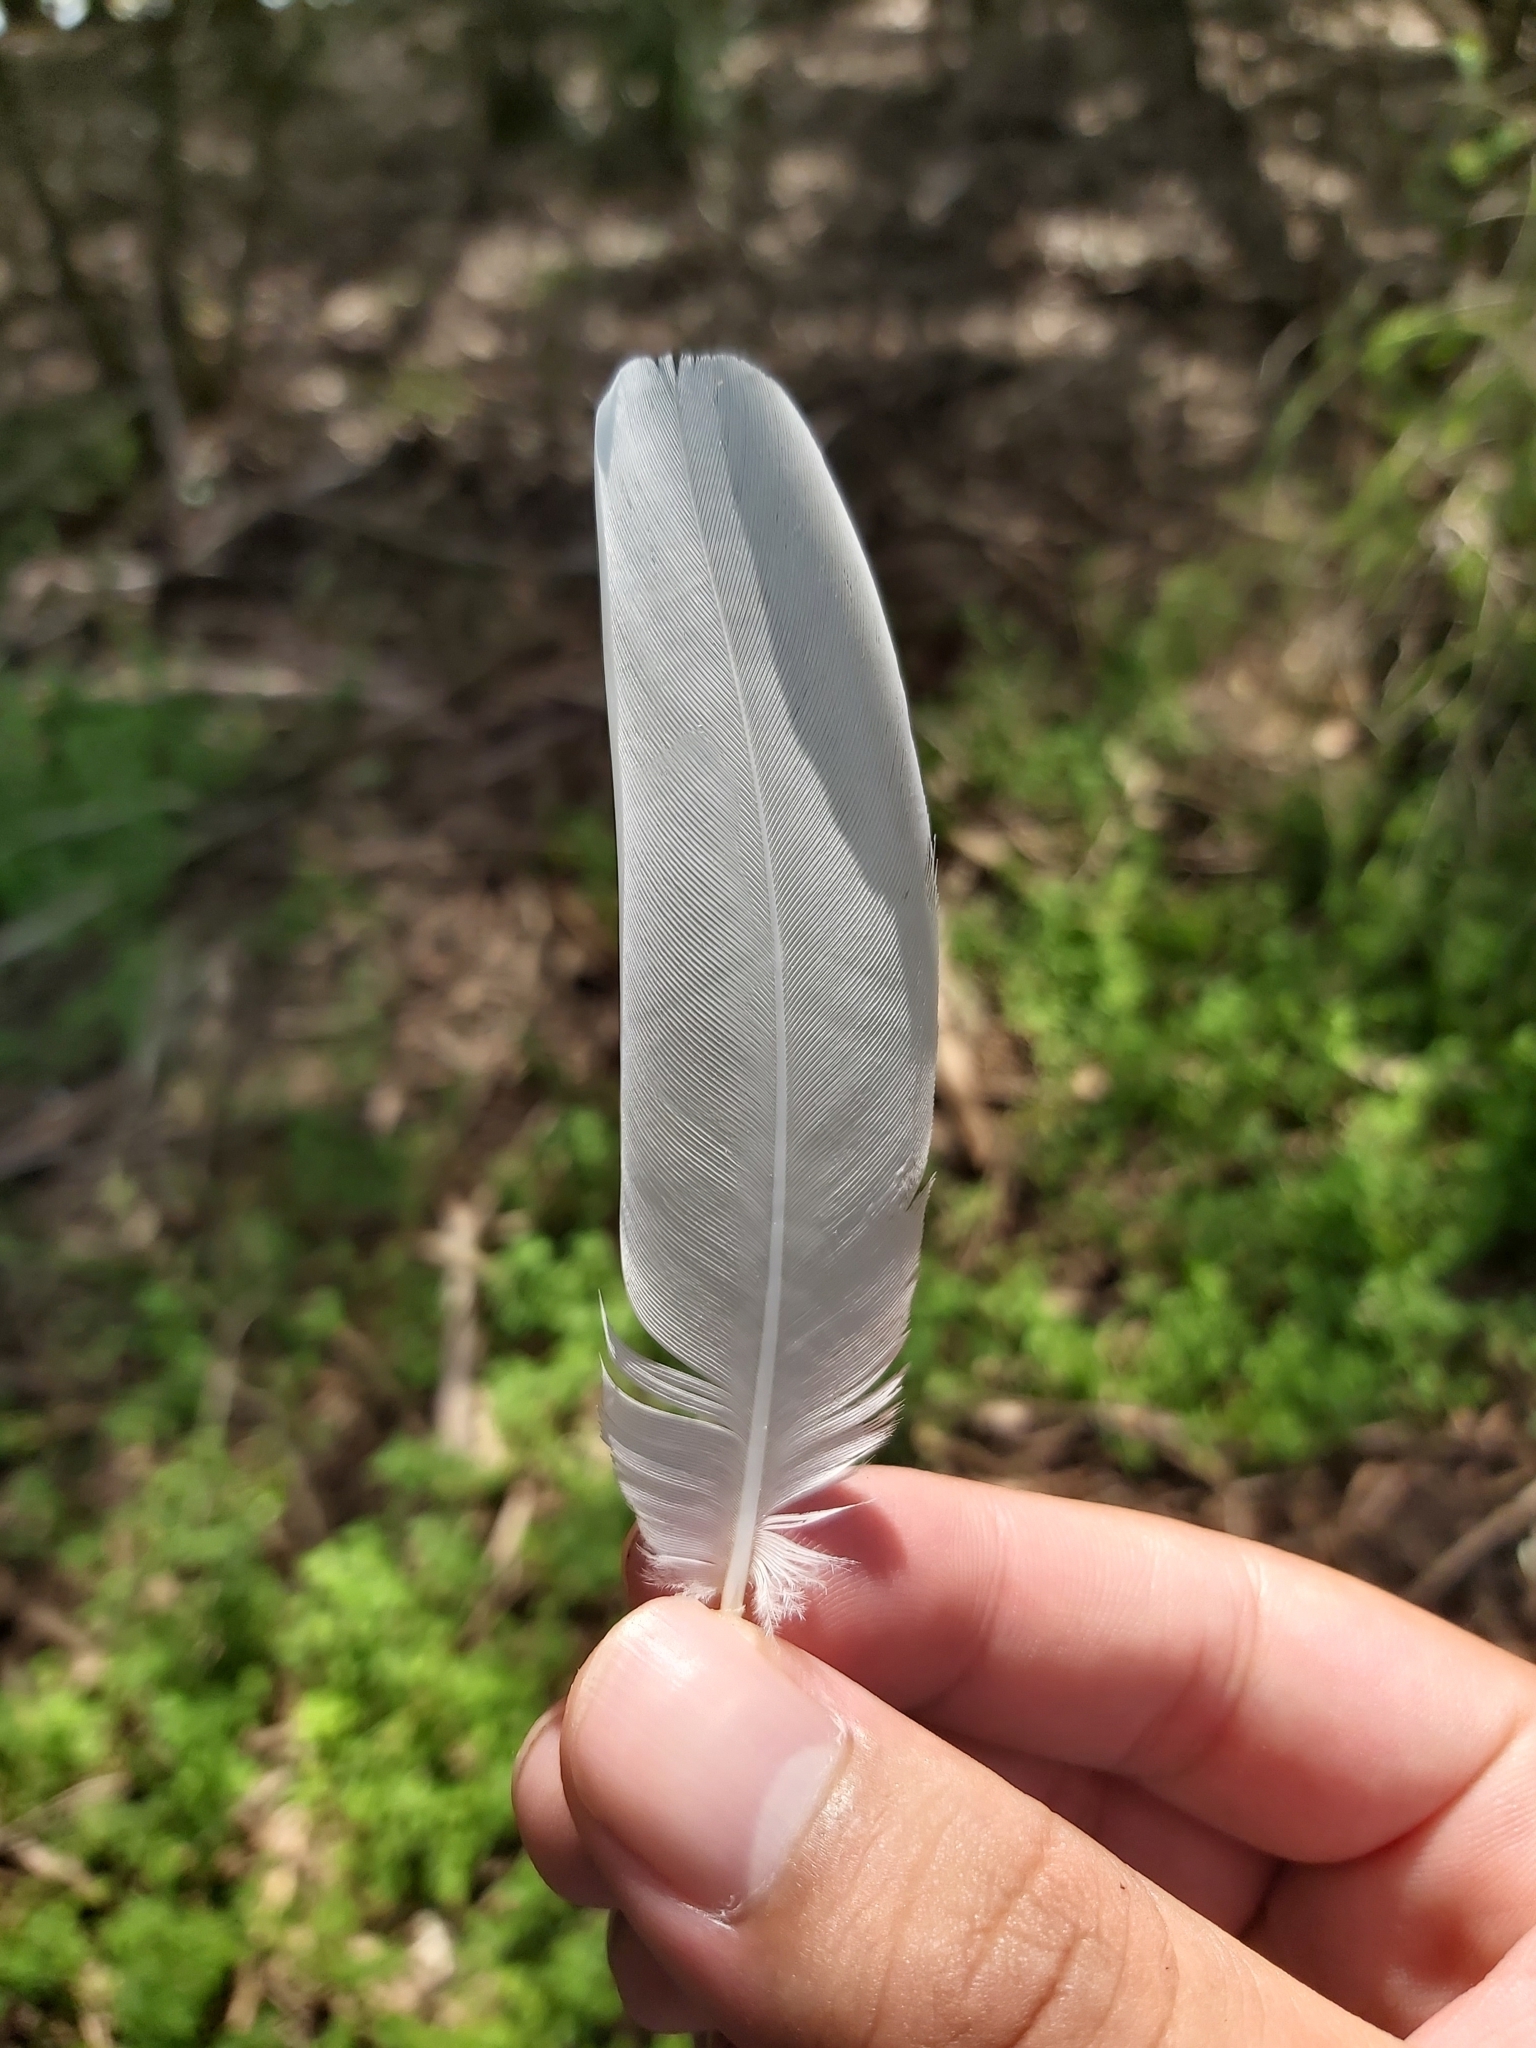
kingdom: Animalia
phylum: Chordata
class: Aves
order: Pelecaniformes
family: Threskiornithidae
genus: Threskiornis
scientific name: Threskiornis molucca
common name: Australian white ibis
